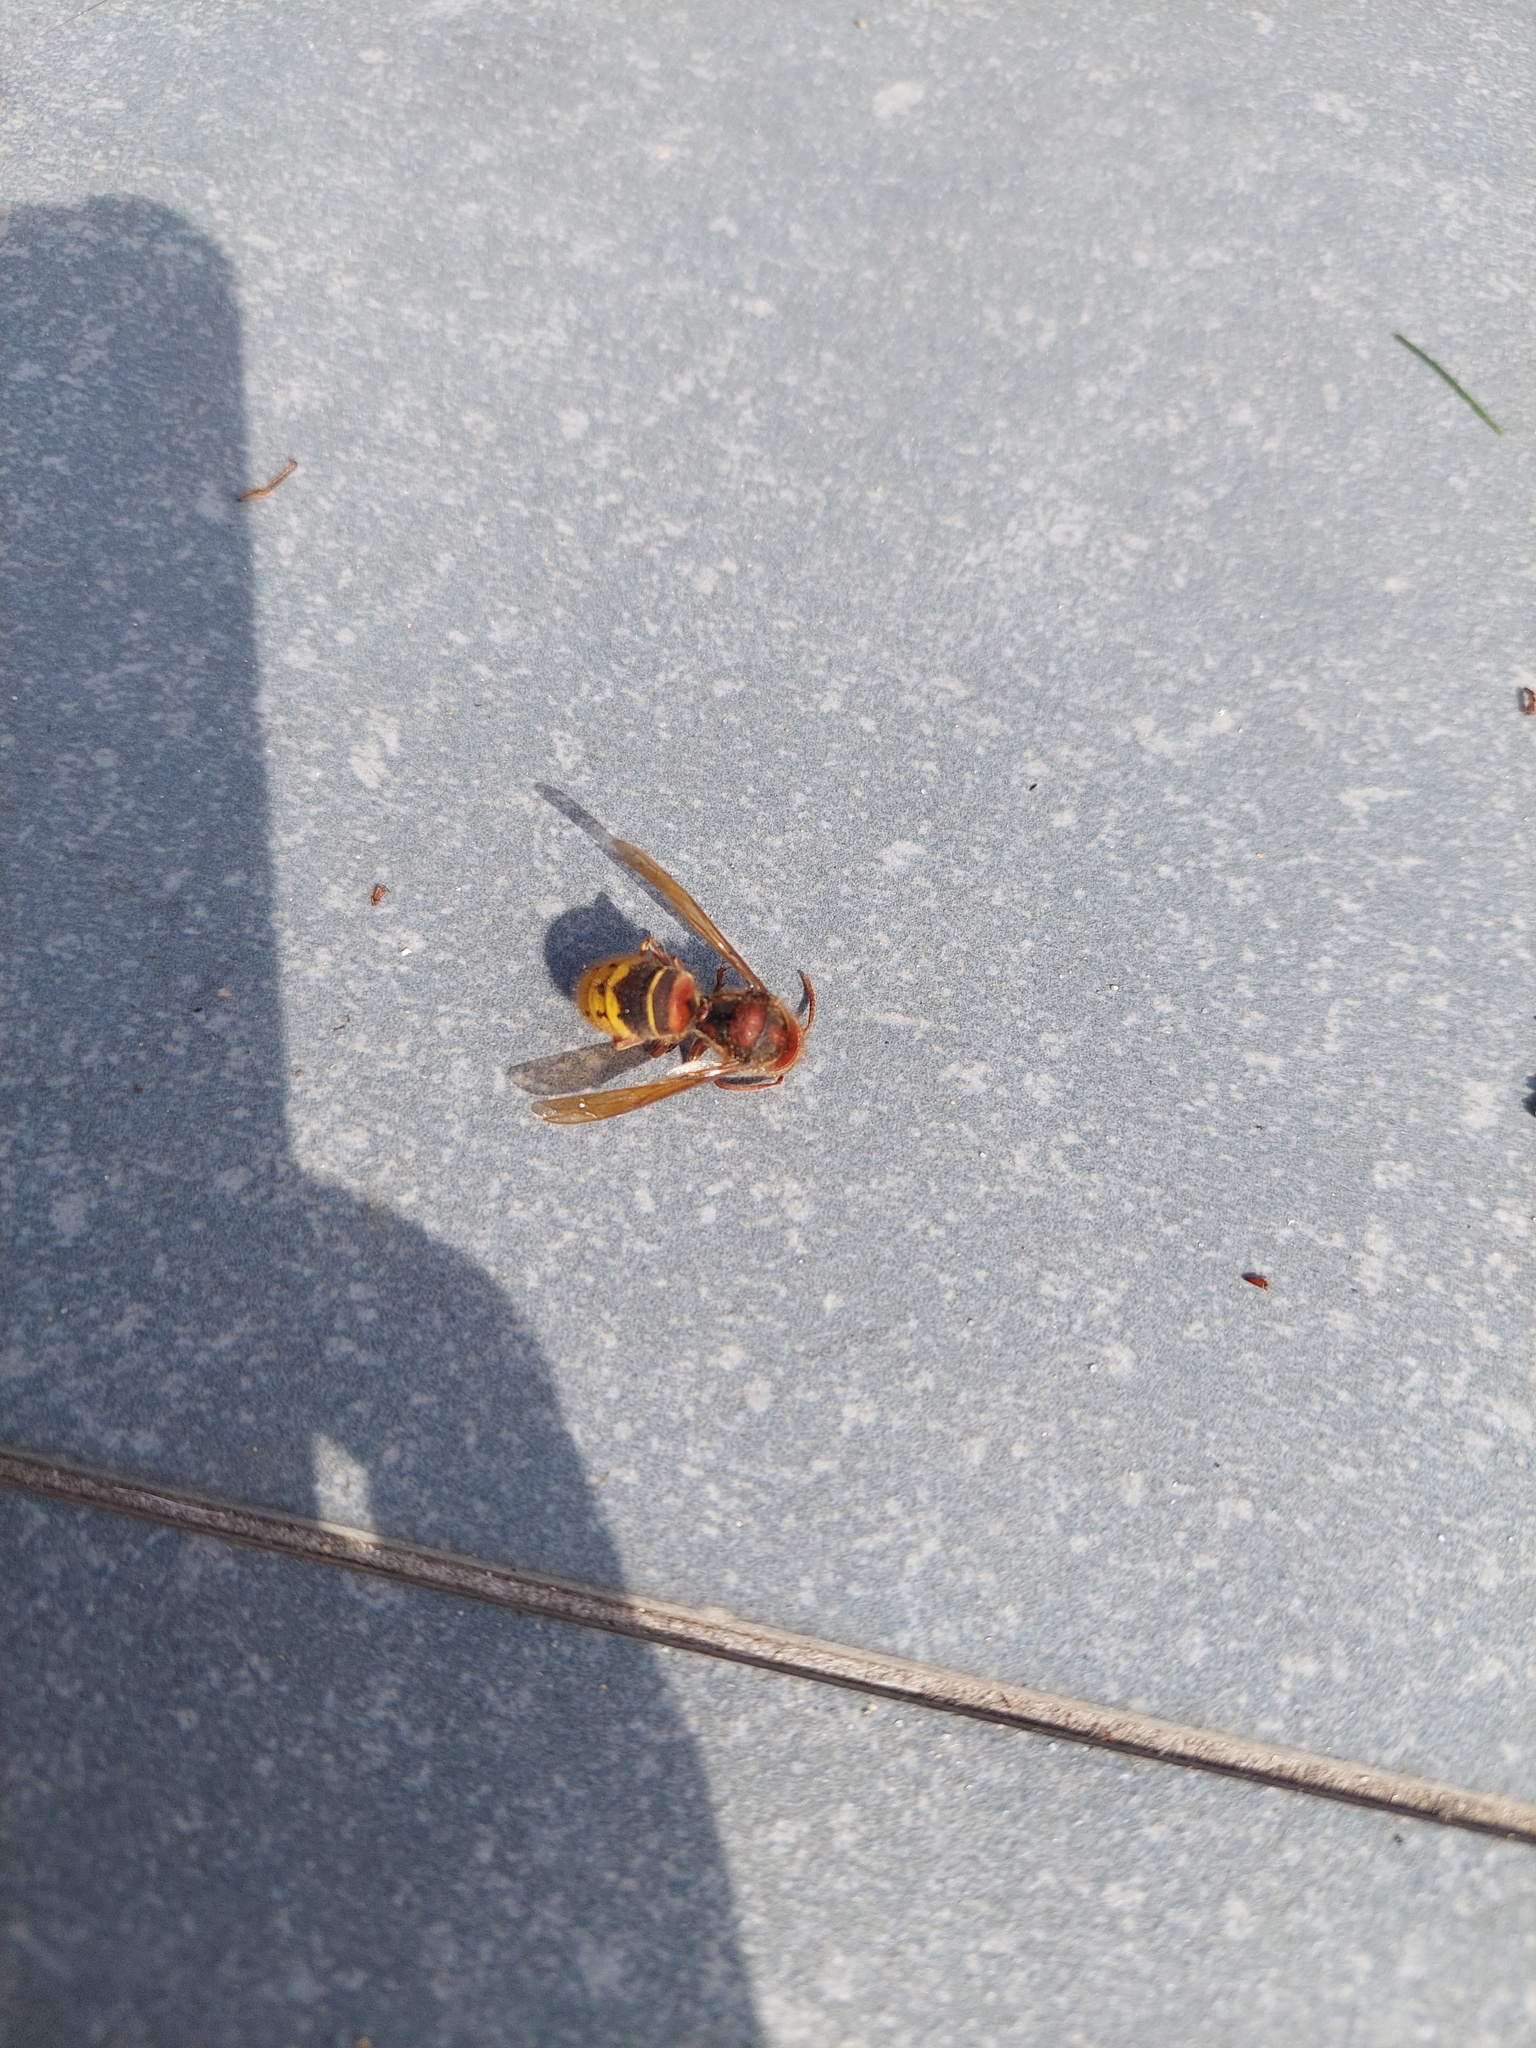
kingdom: Animalia
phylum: Arthropoda
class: Insecta
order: Hymenoptera
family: Vespidae
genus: Vespa
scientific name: Vespa crabro
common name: Hornet
